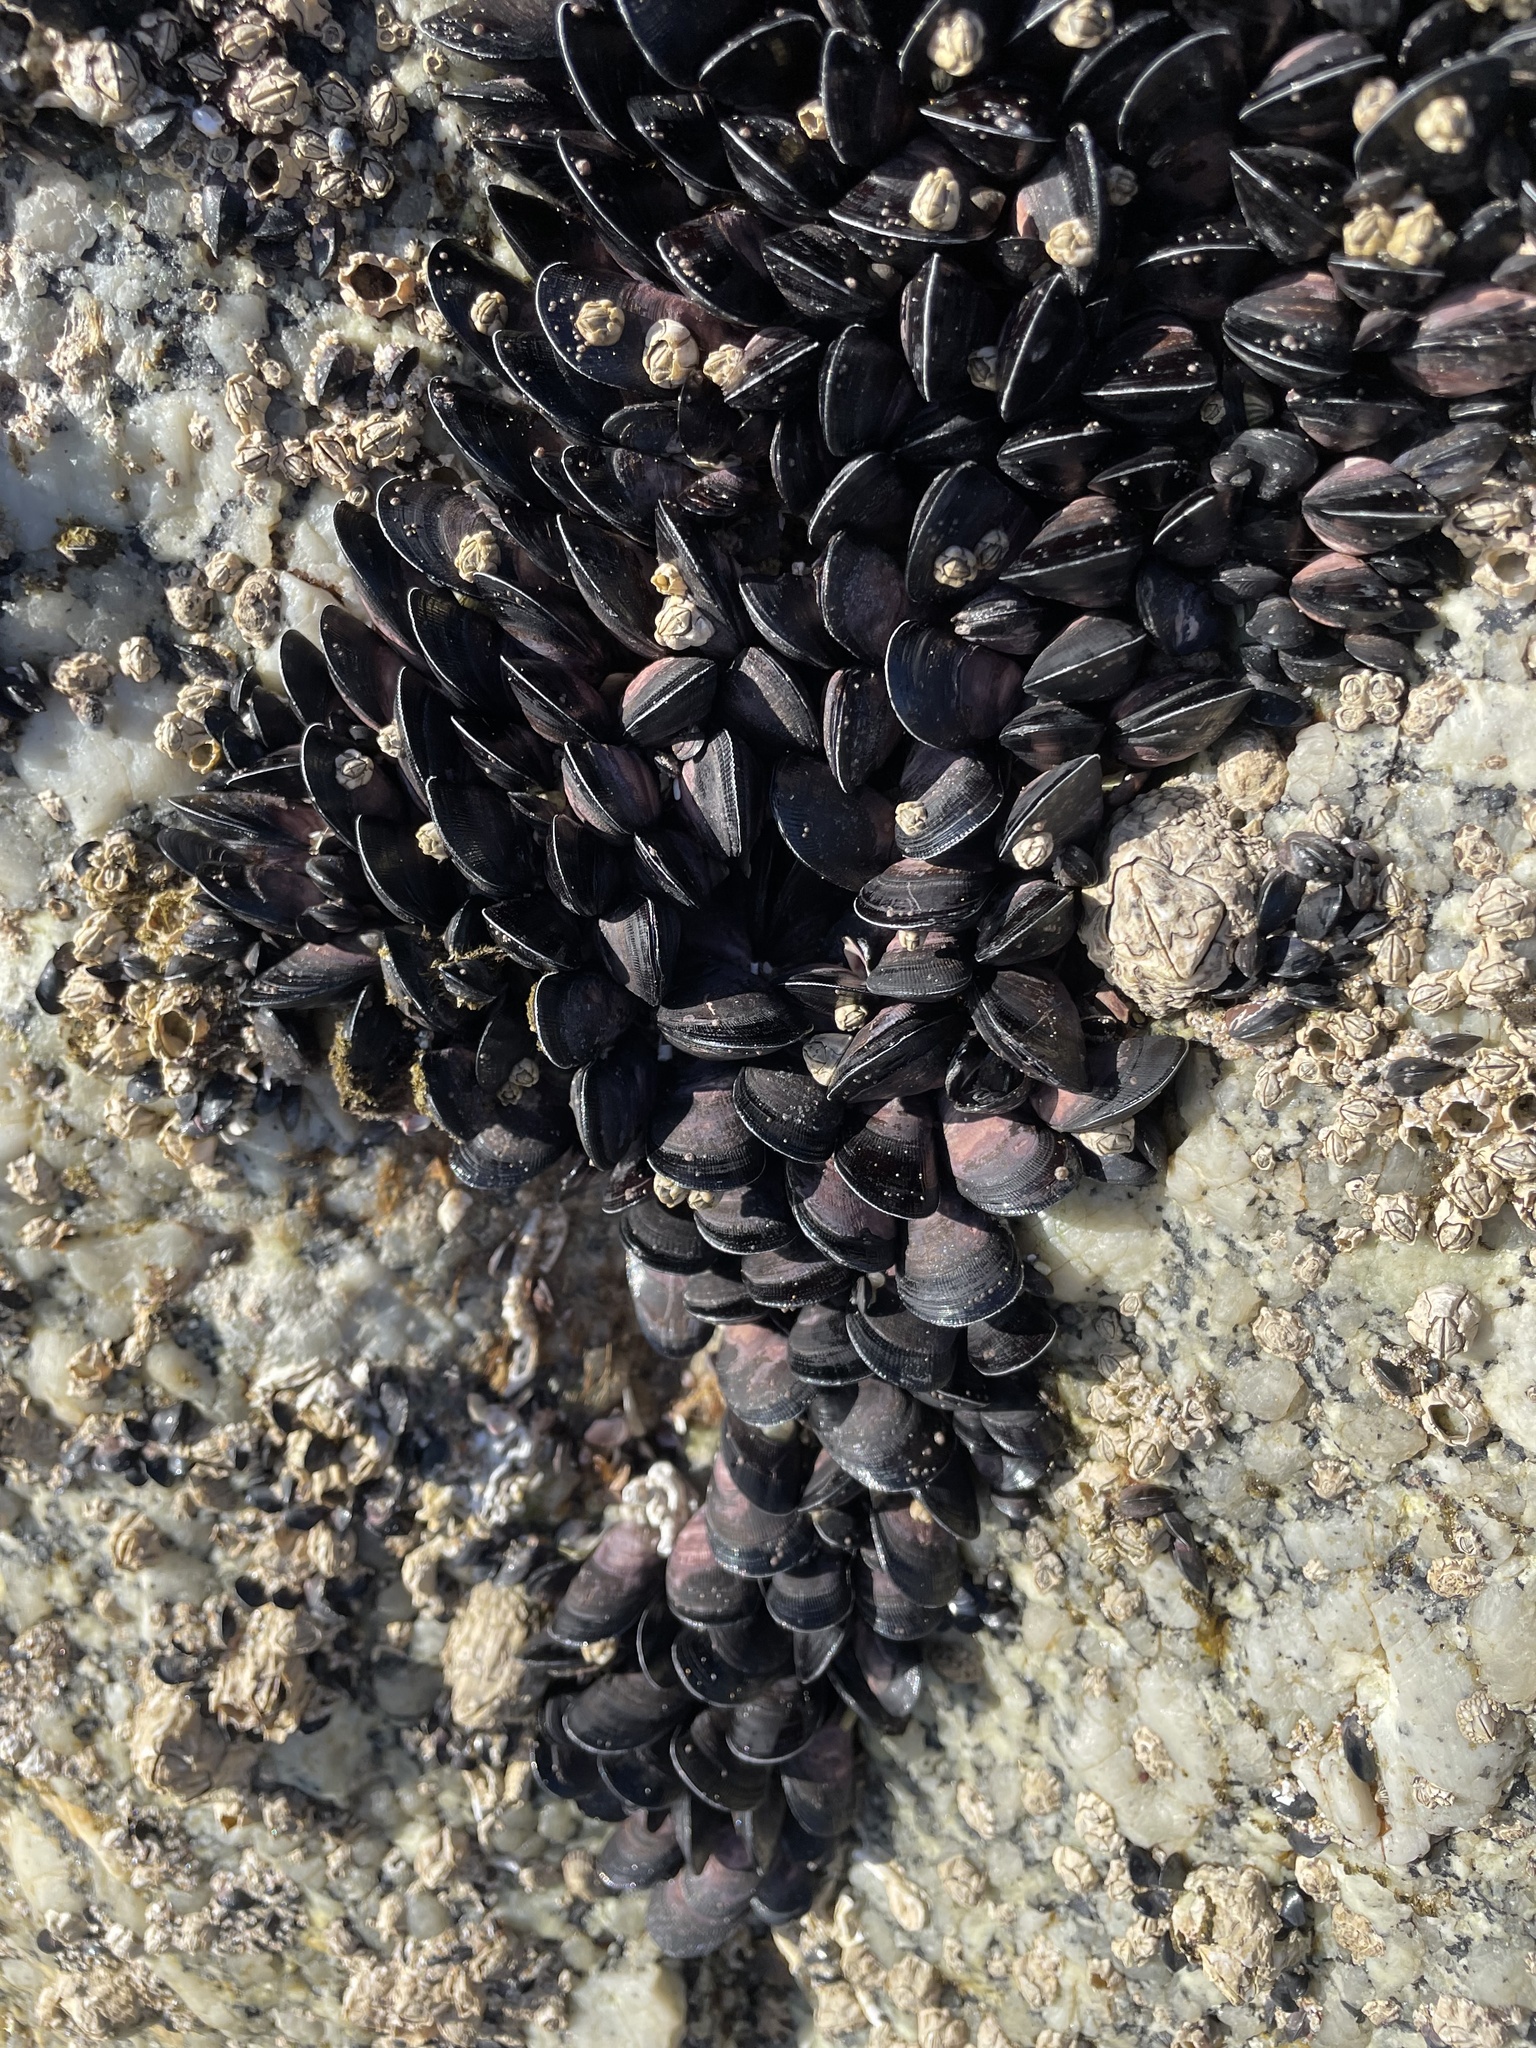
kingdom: Animalia
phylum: Mollusca
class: Bivalvia
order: Mytilida
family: Mytilidae
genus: Brachidontes
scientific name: Brachidontes rostratus
